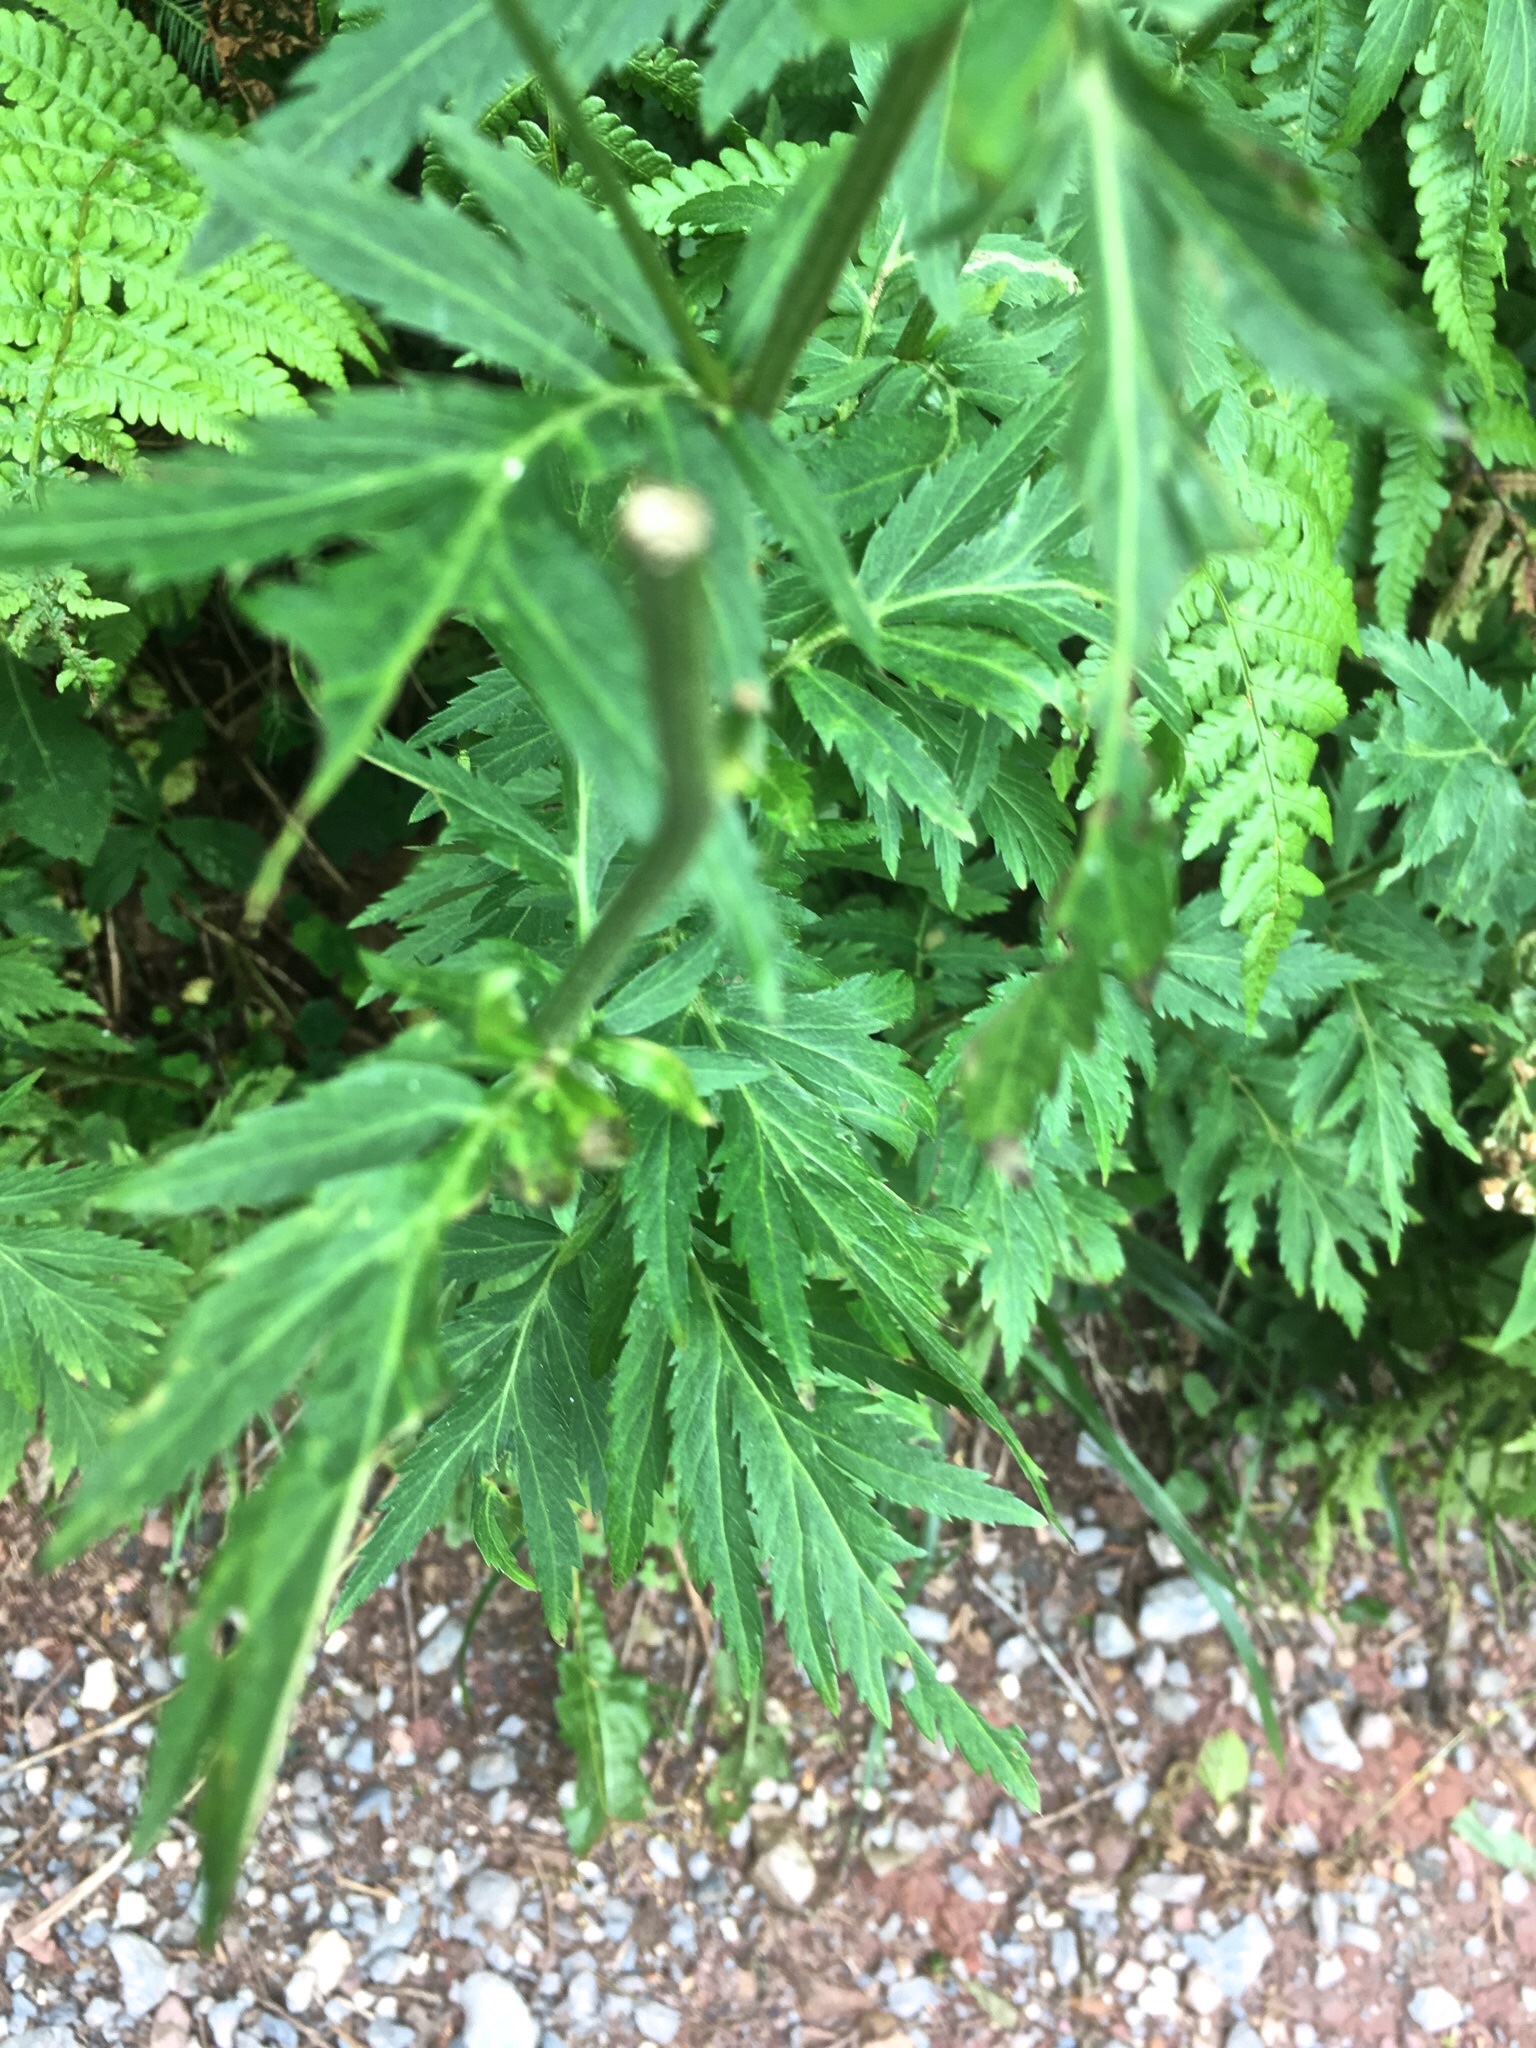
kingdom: Plantae
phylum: Tracheophyta
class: Magnoliopsida
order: Asterales
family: Asteraceae
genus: Achillea
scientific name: Achillea macrophylla
